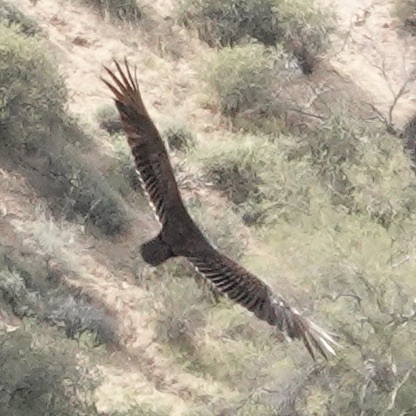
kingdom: Animalia
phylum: Chordata
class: Aves
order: Accipitriformes
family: Cathartidae
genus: Cathartes
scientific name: Cathartes aura
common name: Turkey vulture
